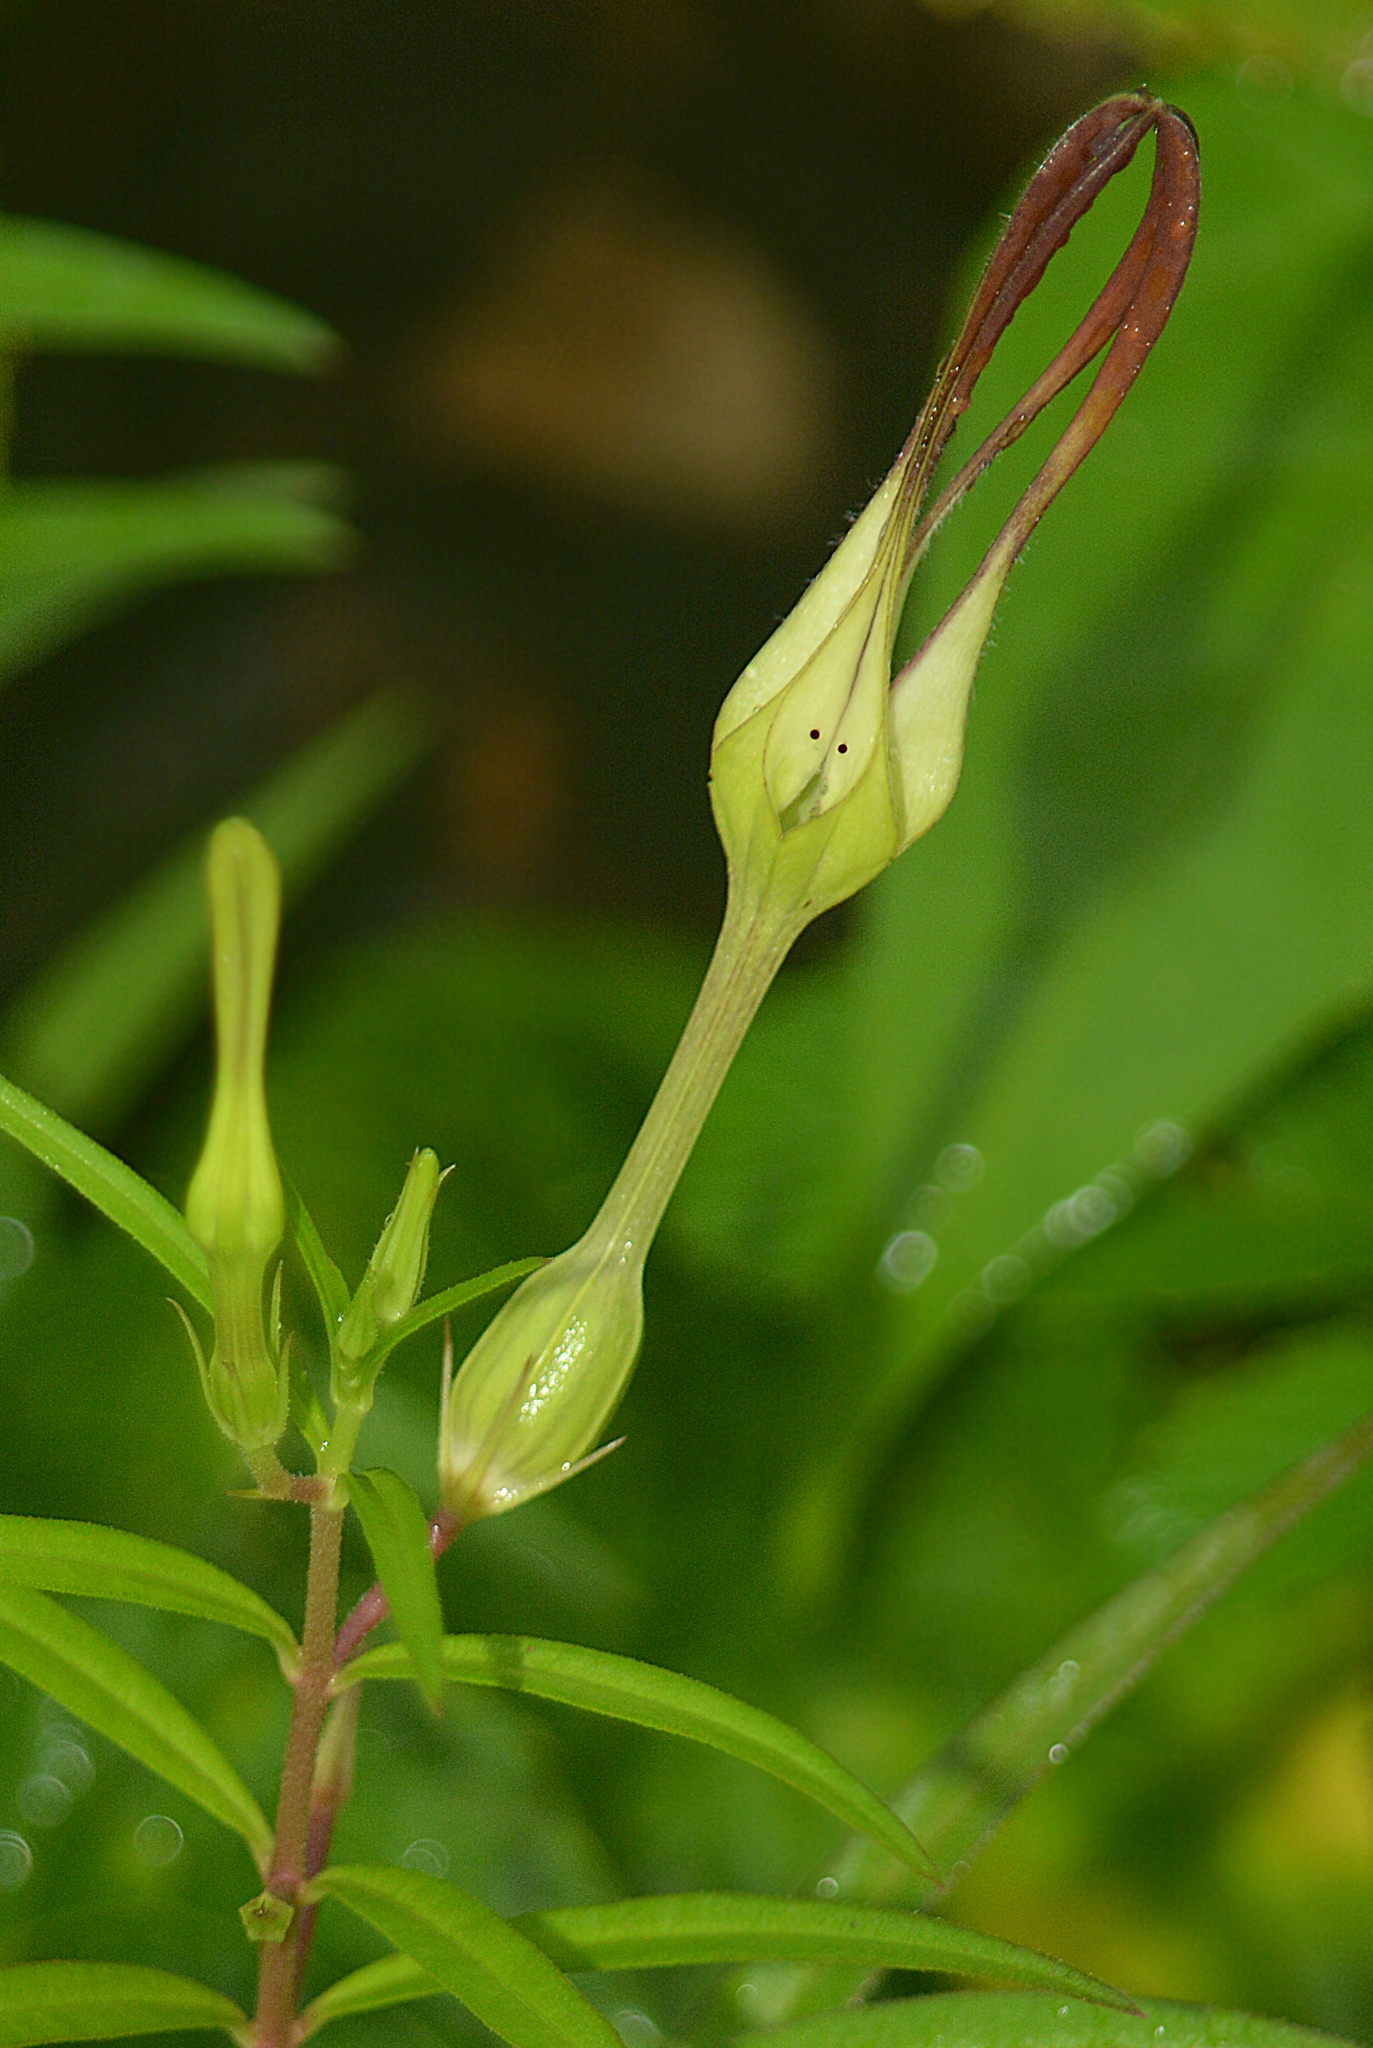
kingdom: Plantae
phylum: Tracheophyta
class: Magnoliopsida
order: Gentianales
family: Apocynaceae
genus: Ceropegia
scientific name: Ceropegia attenuata
